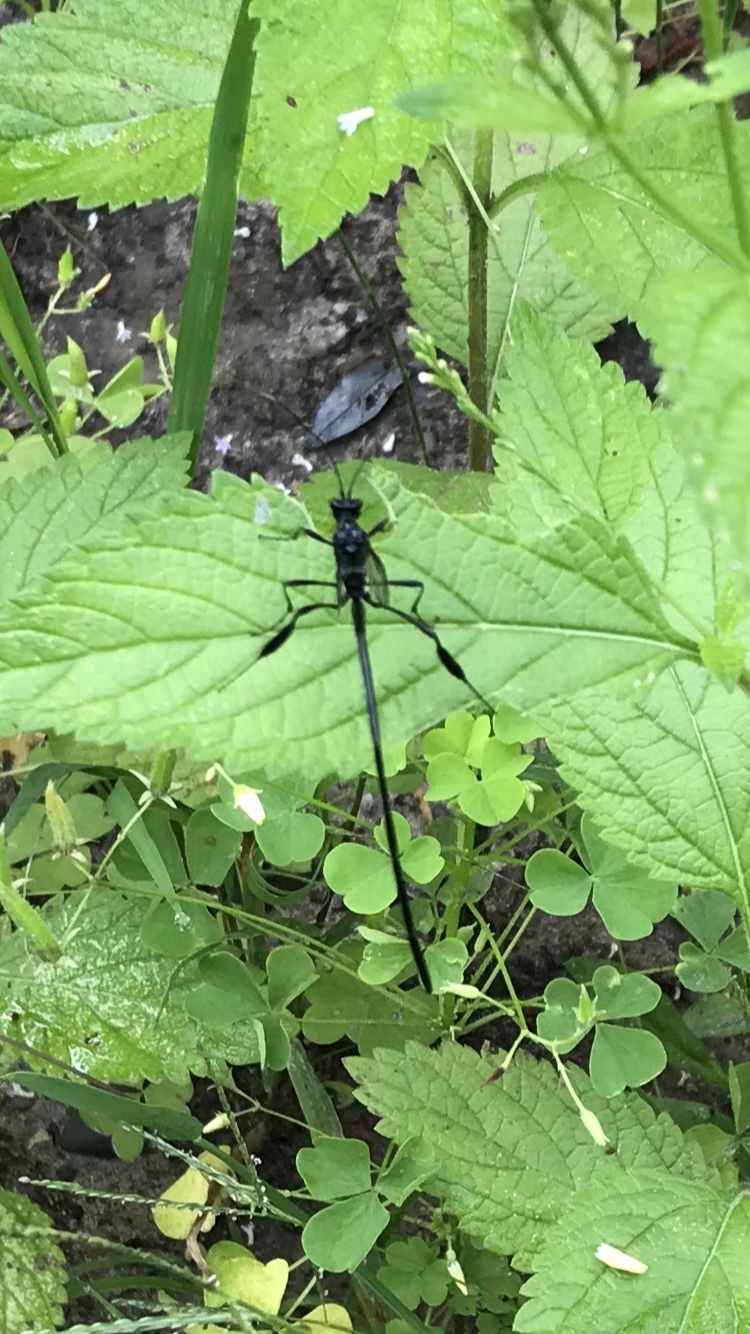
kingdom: Animalia
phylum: Arthropoda
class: Insecta
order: Hymenoptera
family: Pelecinidae
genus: Pelecinus
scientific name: Pelecinus polyturator
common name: American pelecinid wasp
